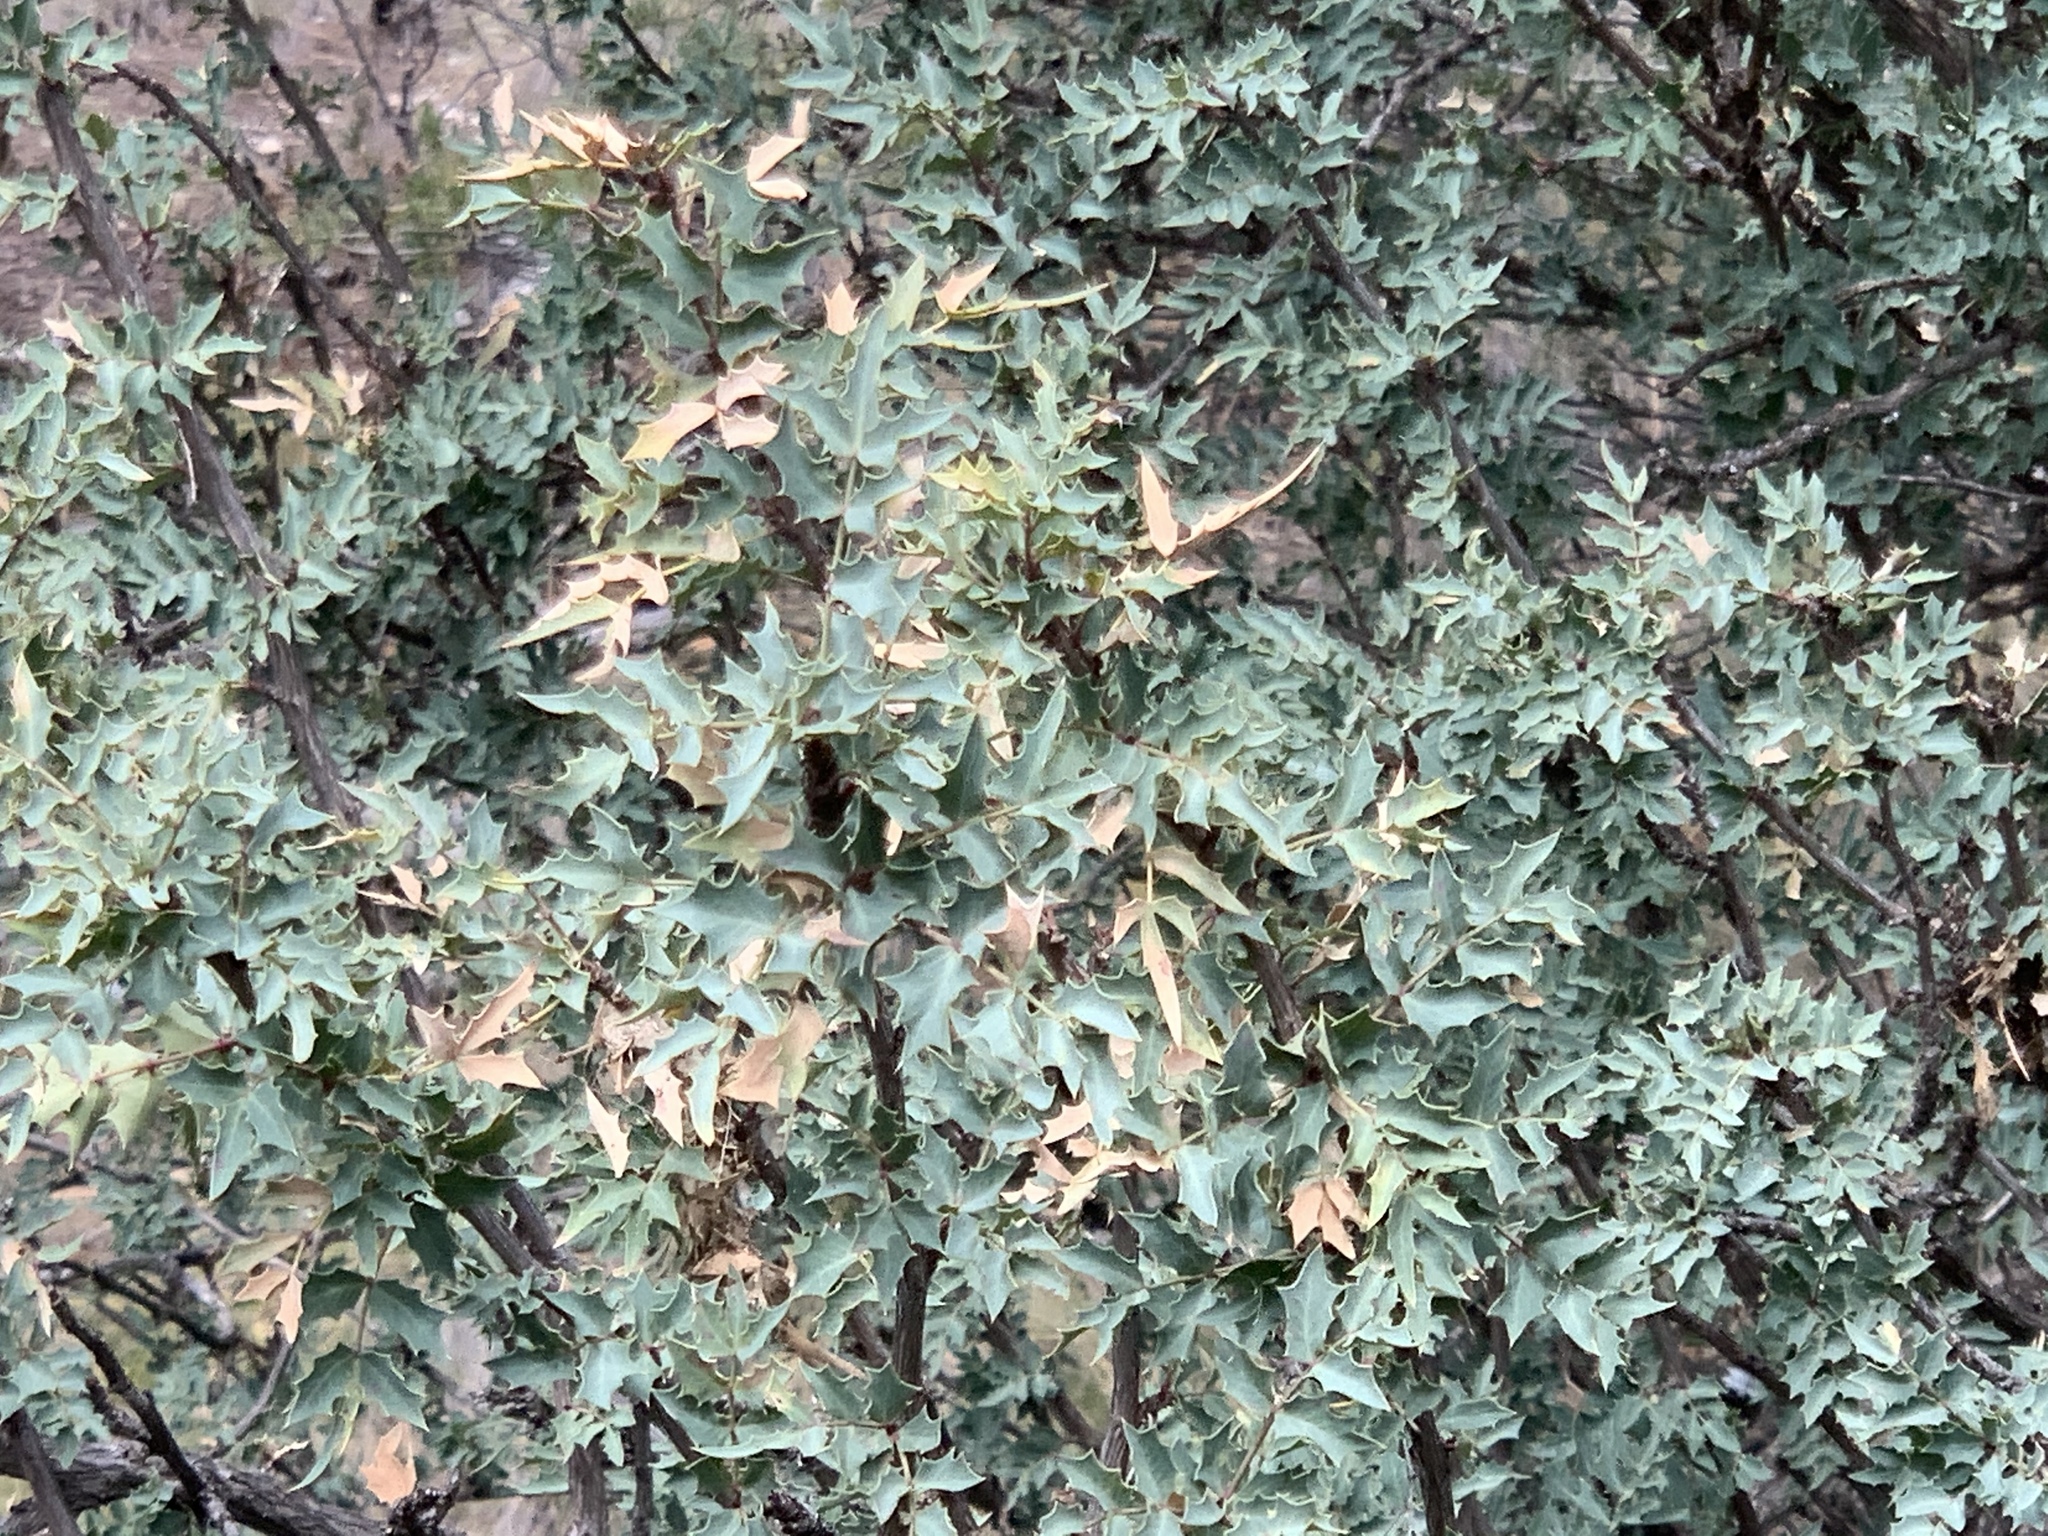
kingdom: Plantae
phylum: Tracheophyta
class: Magnoliopsida
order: Ranunculales
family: Berberidaceae
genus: Alloberberis
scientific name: Alloberberis haematocarpa
